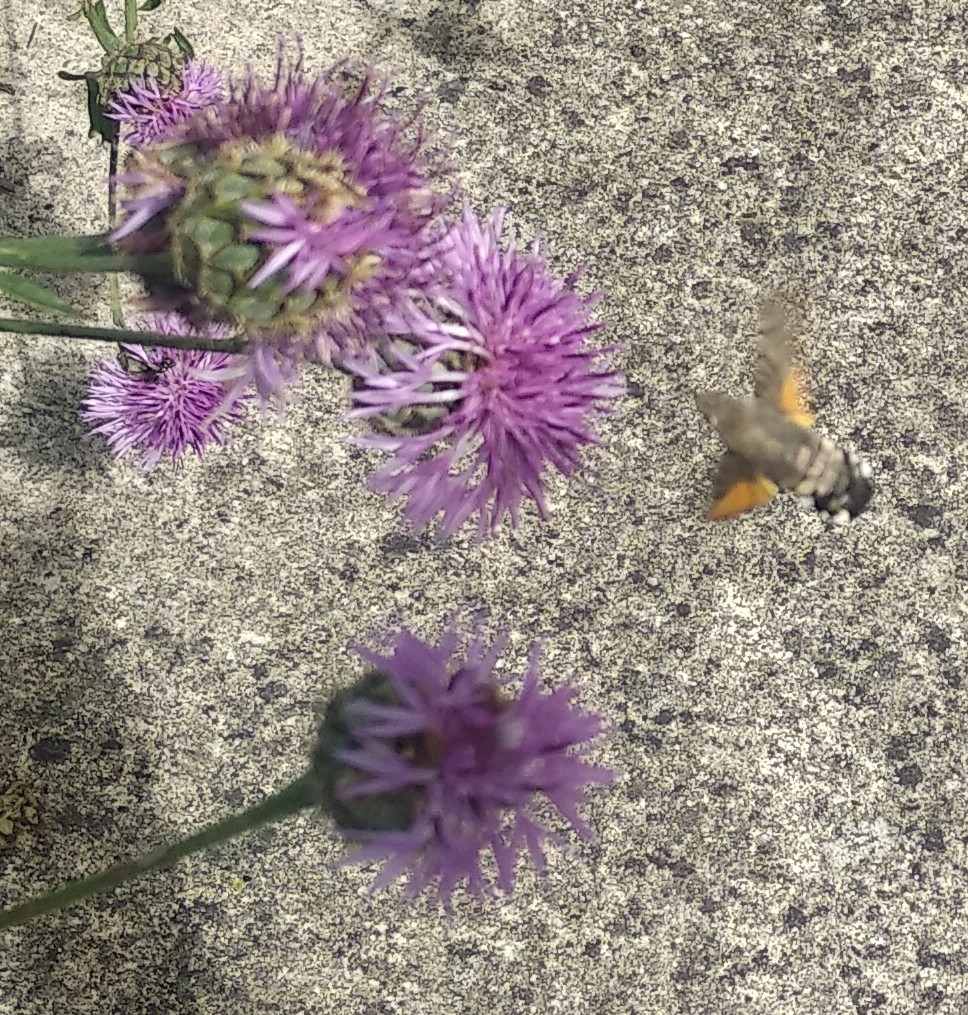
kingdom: Animalia
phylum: Arthropoda
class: Insecta
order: Lepidoptera
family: Sphingidae
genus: Macroglossum
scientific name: Macroglossum stellatarum
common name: Humming-bird hawk-moth
